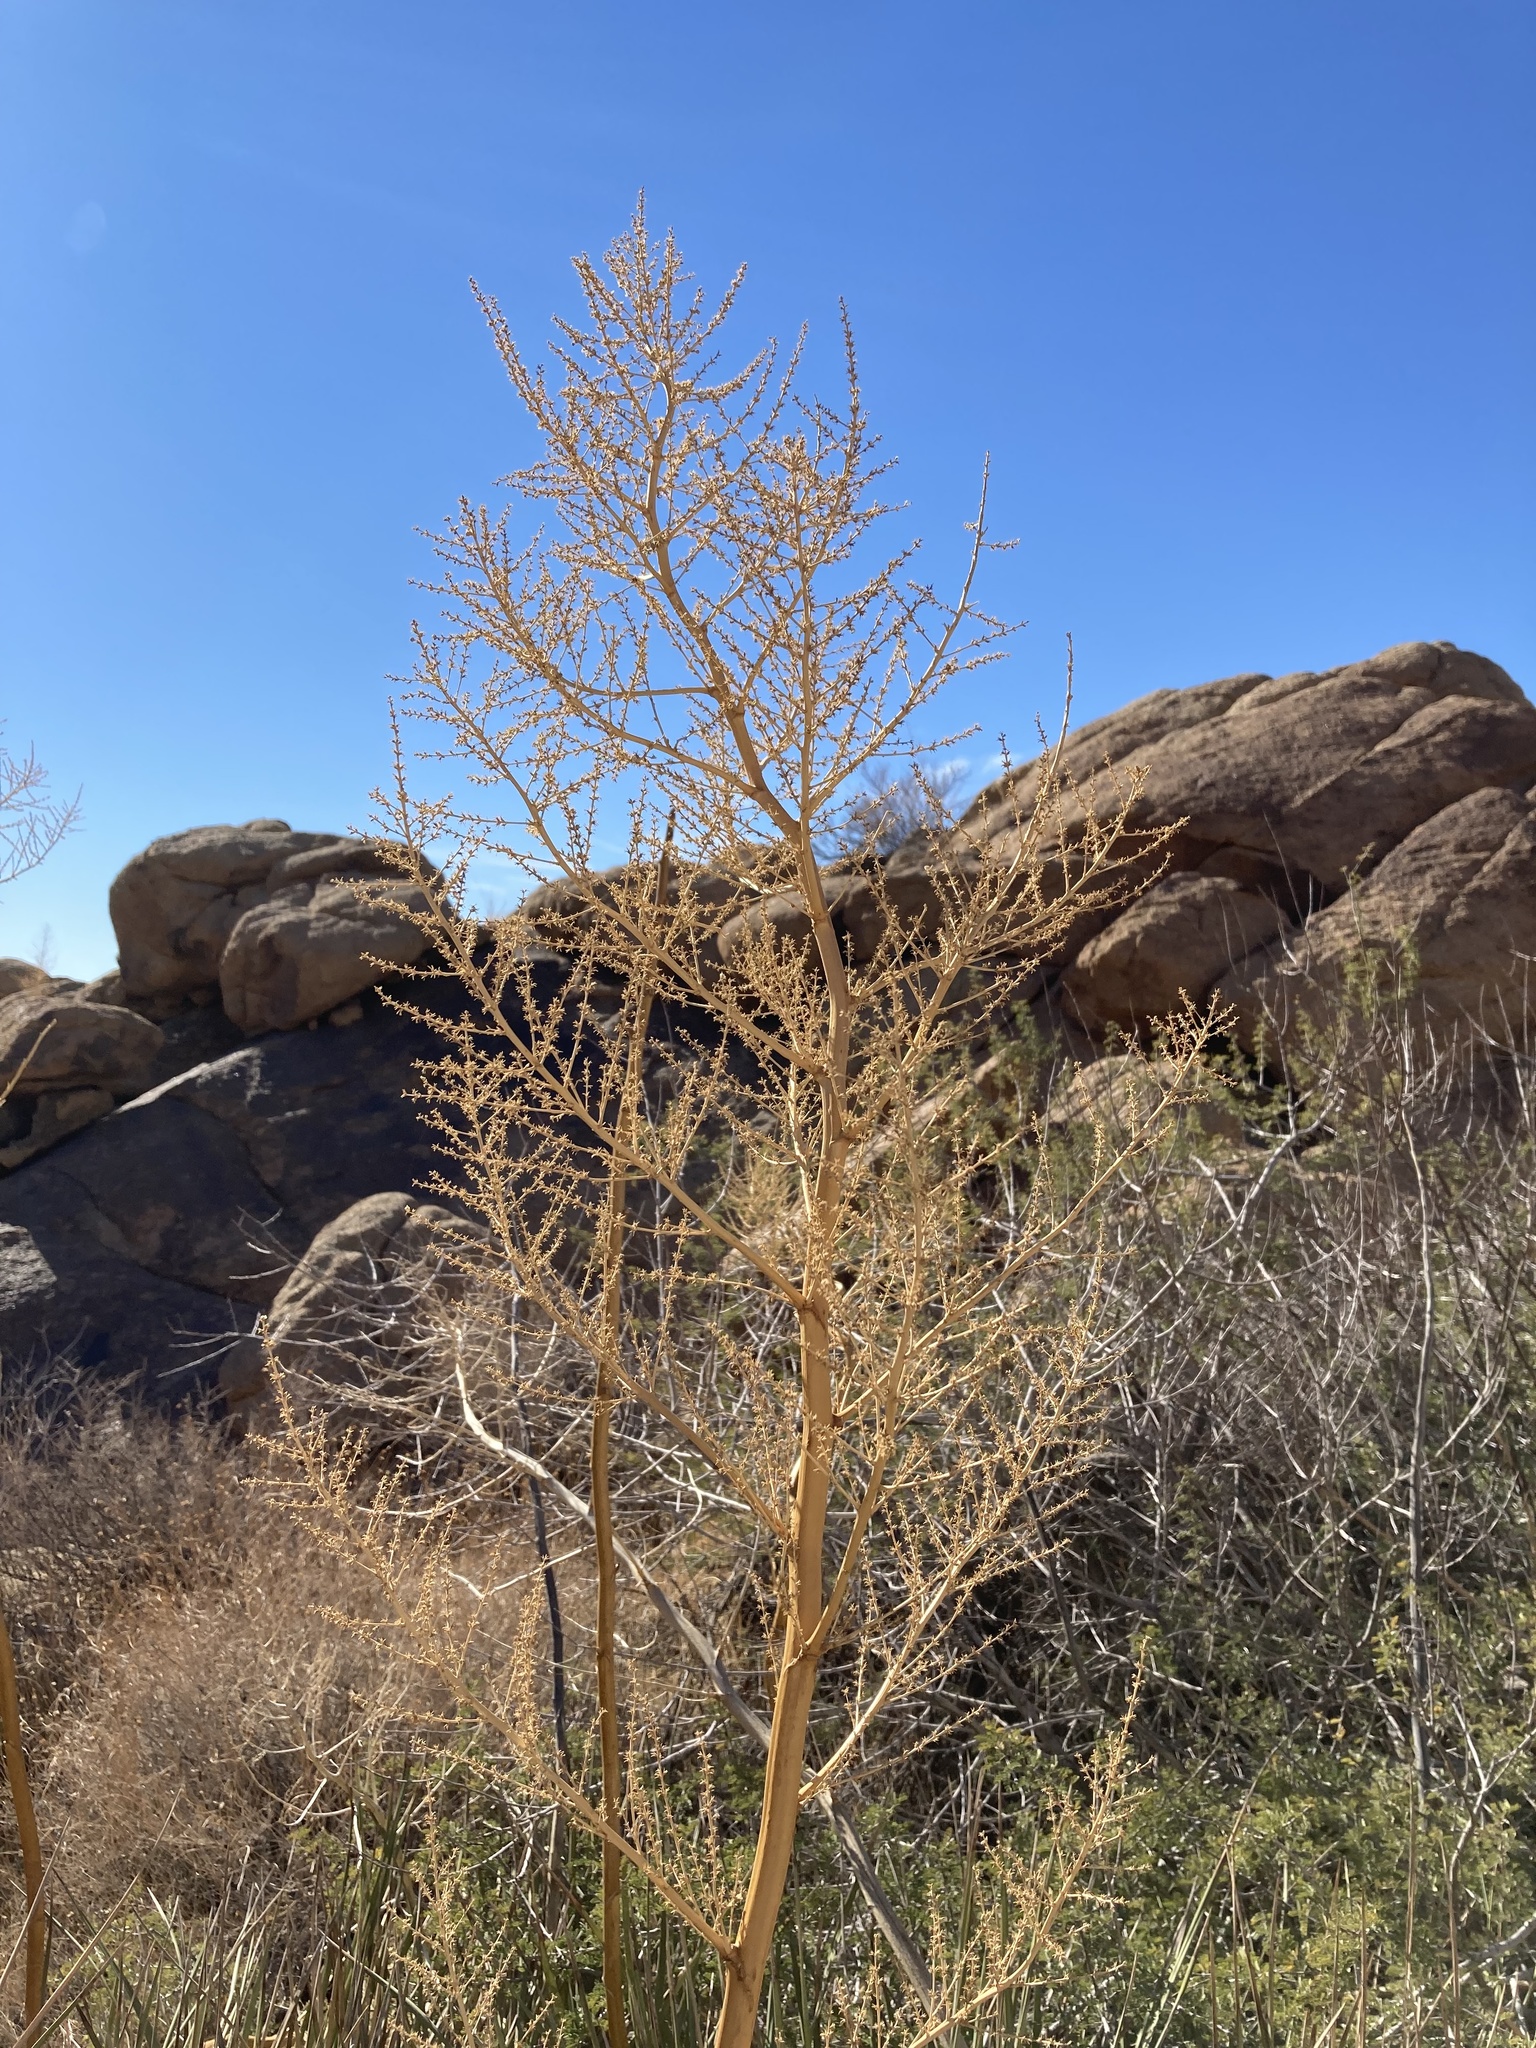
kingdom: Plantae
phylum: Tracheophyta
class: Liliopsida
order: Asparagales
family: Asparagaceae
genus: Nolina
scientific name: Nolina bigelovii
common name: Bigelow bear-grass
